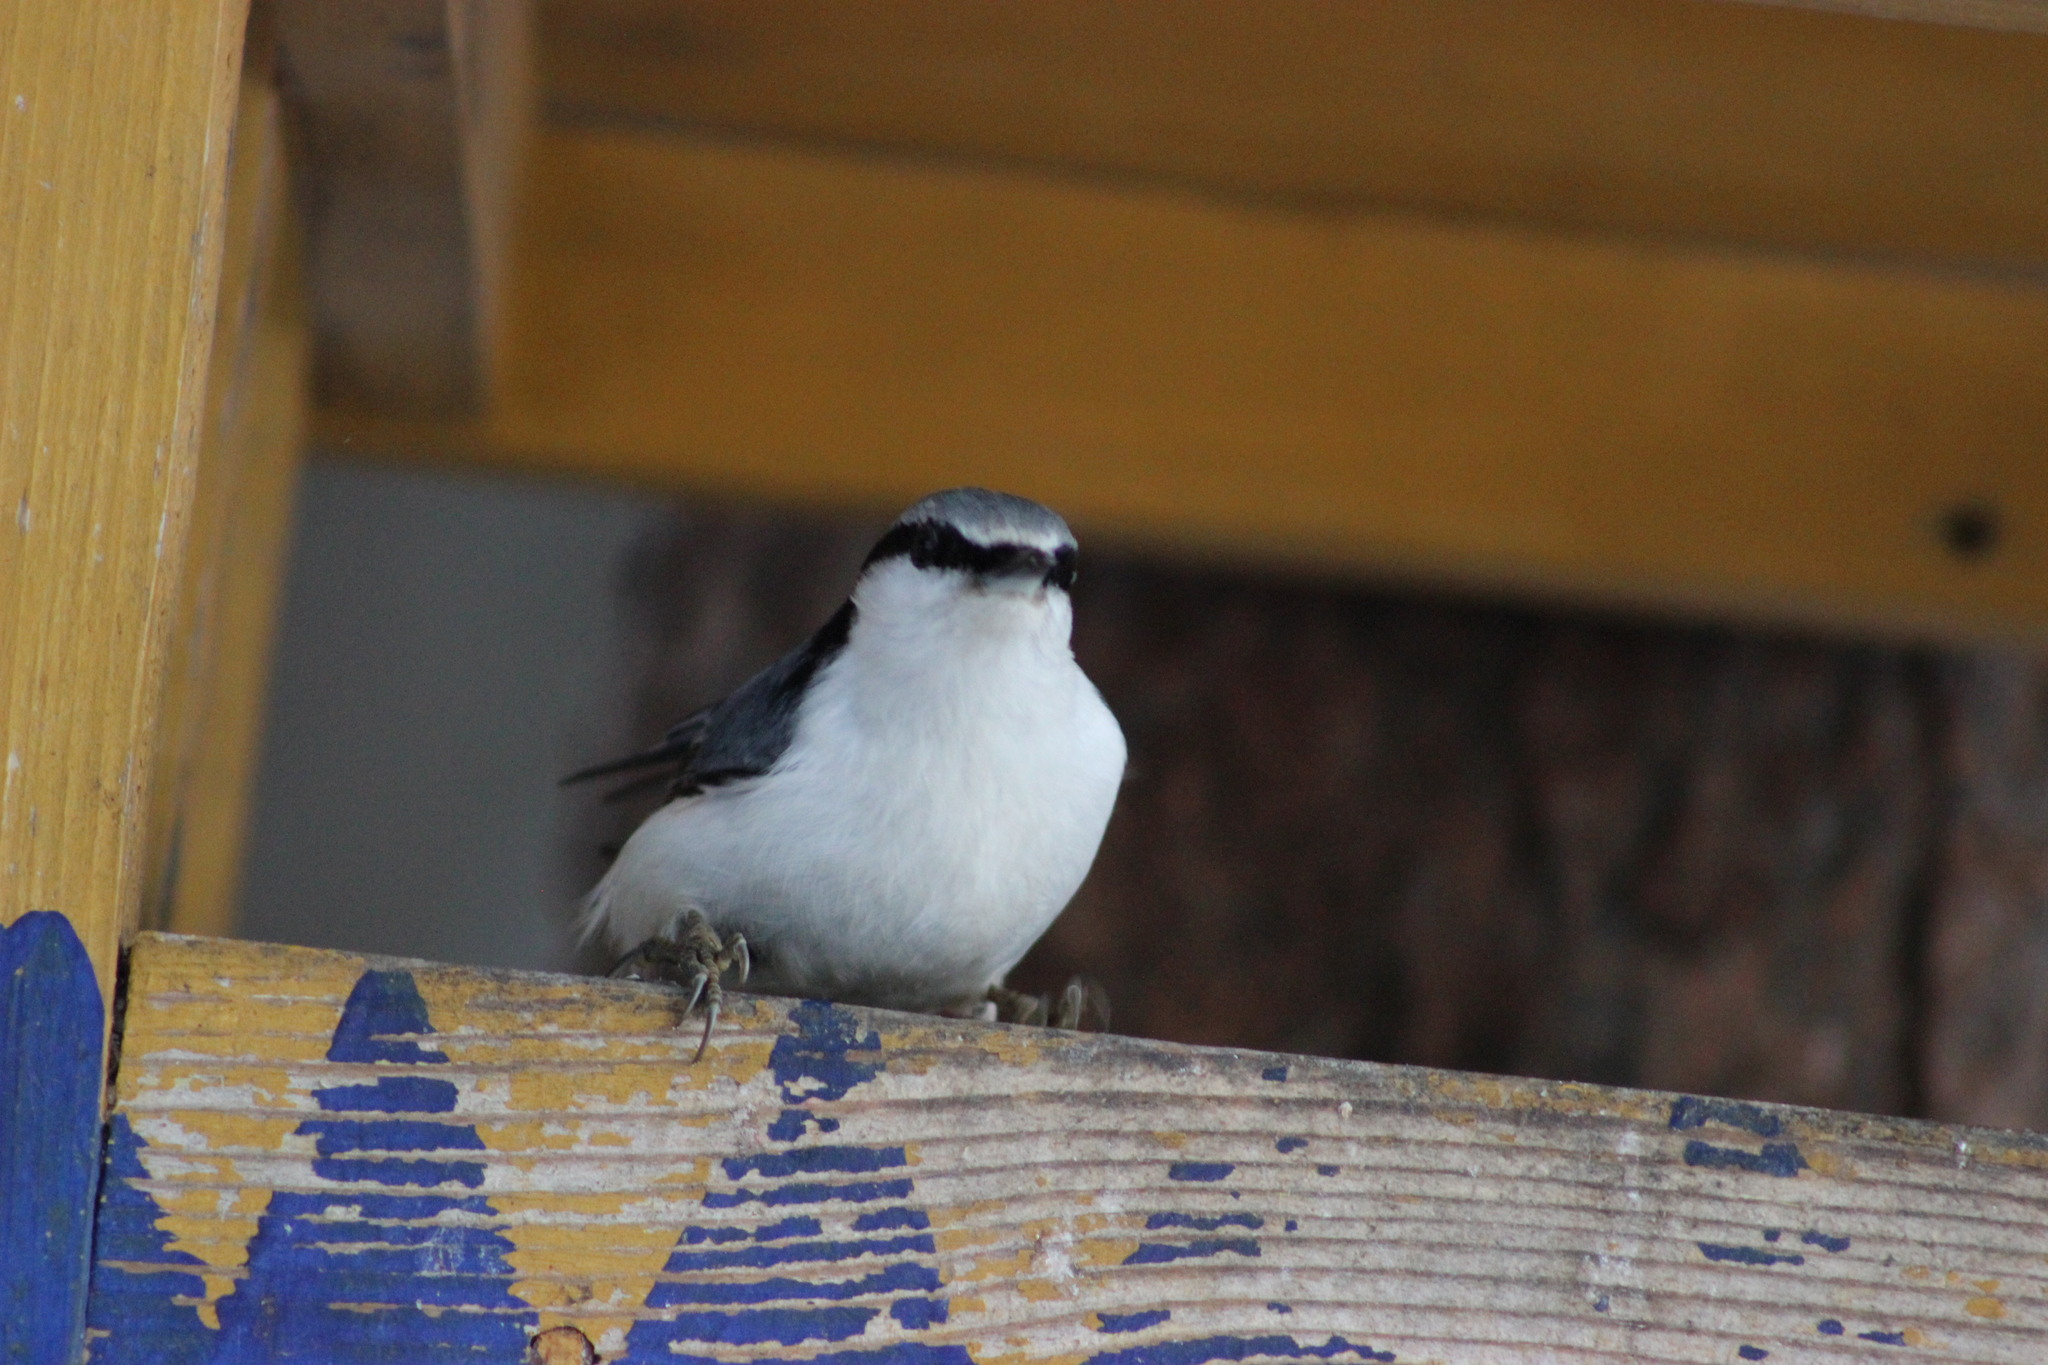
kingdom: Animalia
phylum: Chordata
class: Aves
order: Passeriformes
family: Sittidae
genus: Sitta
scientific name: Sitta europaea
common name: Eurasian nuthatch
